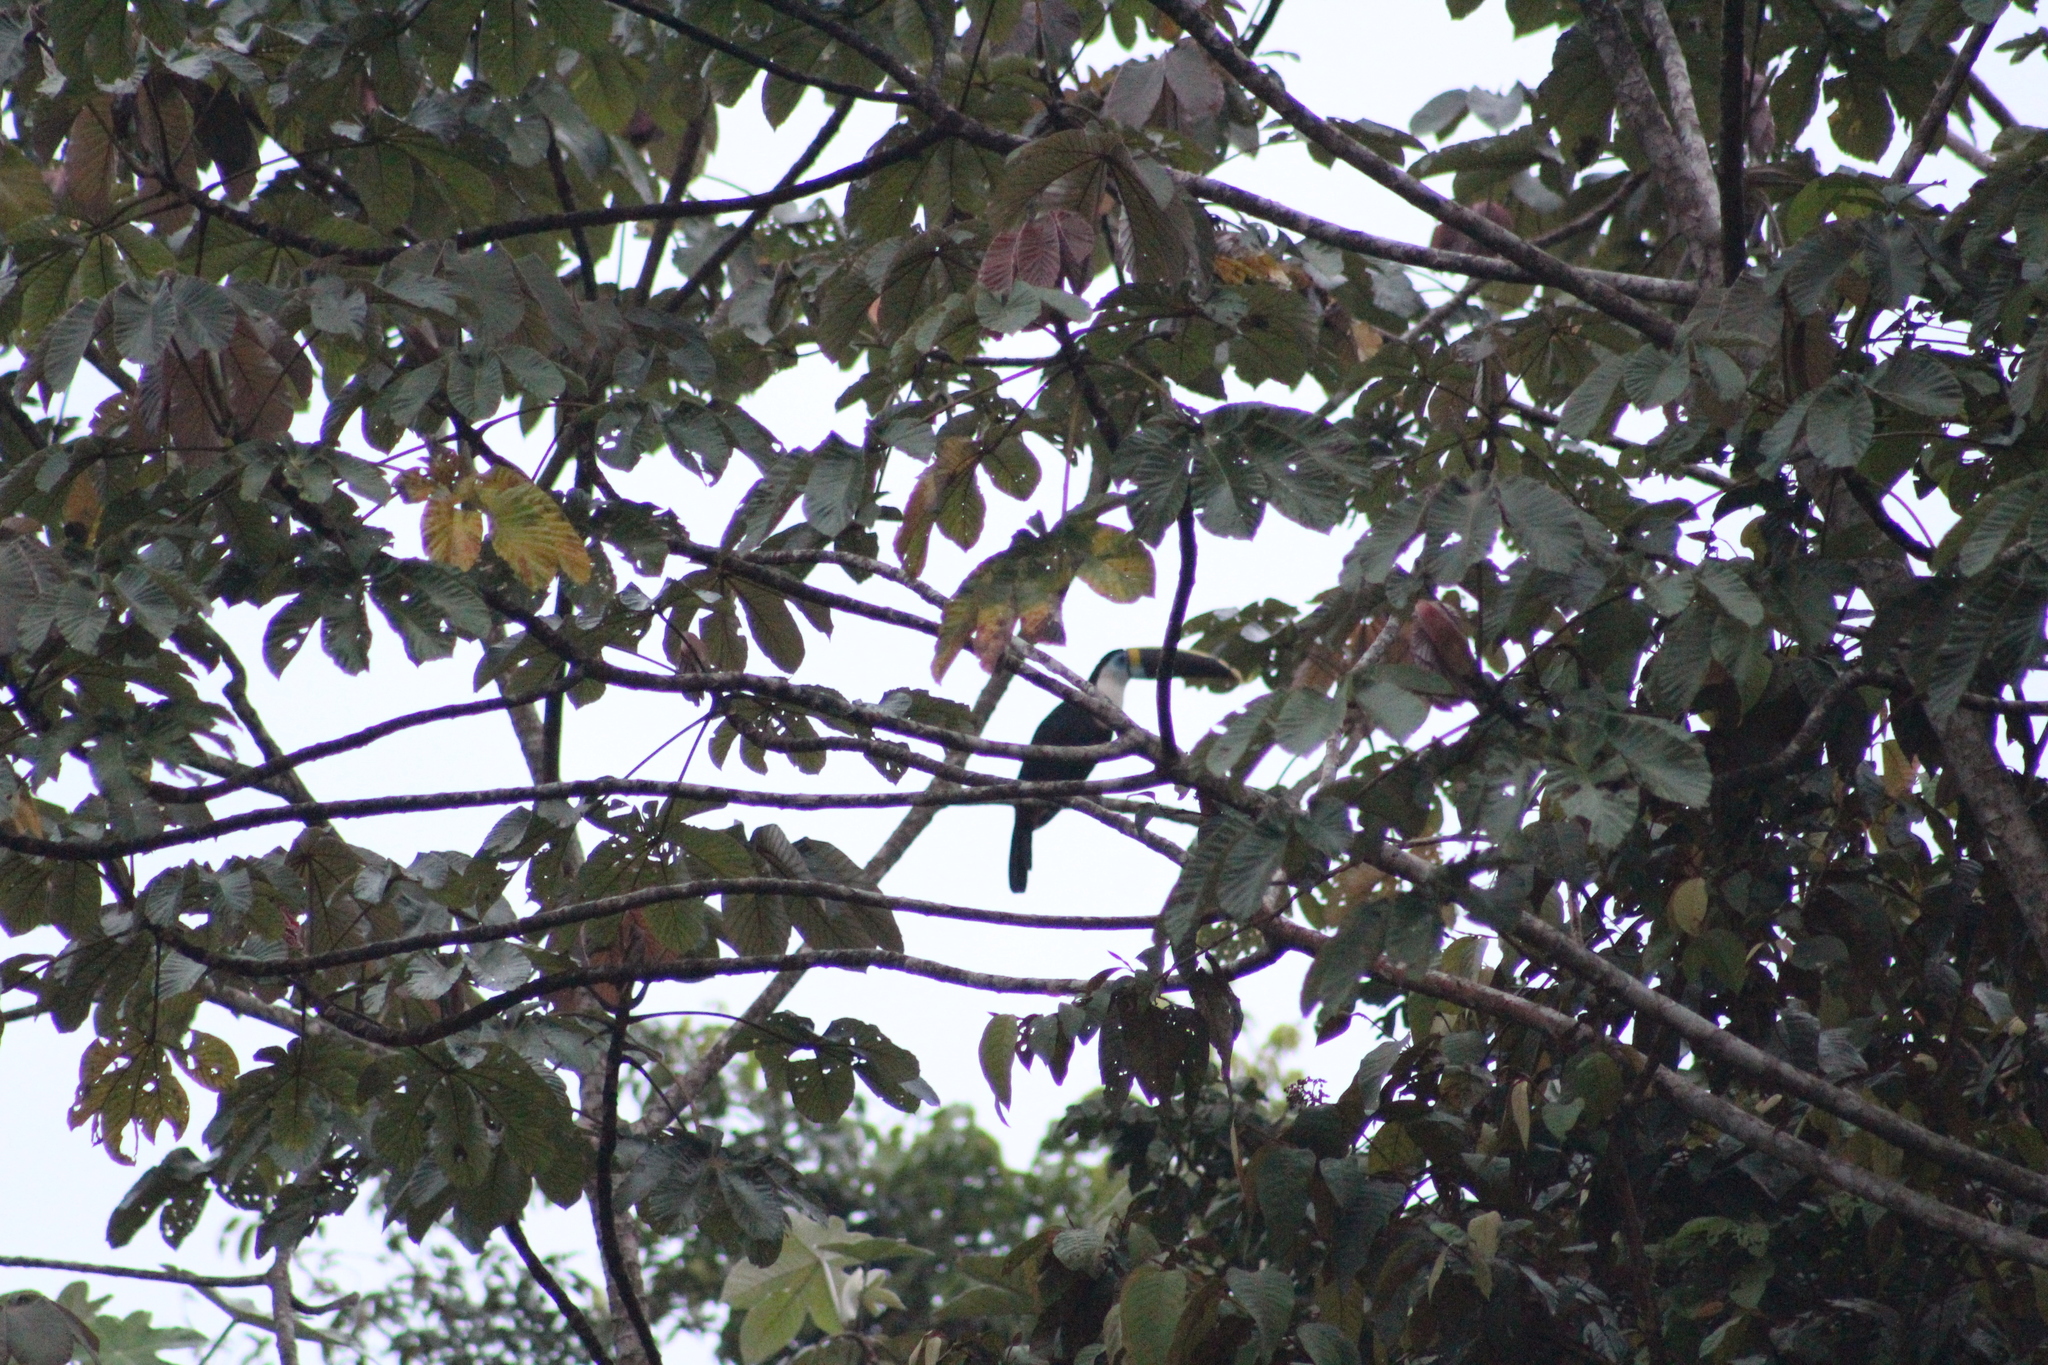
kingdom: Animalia
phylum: Chordata
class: Aves
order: Piciformes
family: Ramphastidae
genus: Ramphastos
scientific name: Ramphastos tucanus
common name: White-throated toucan
